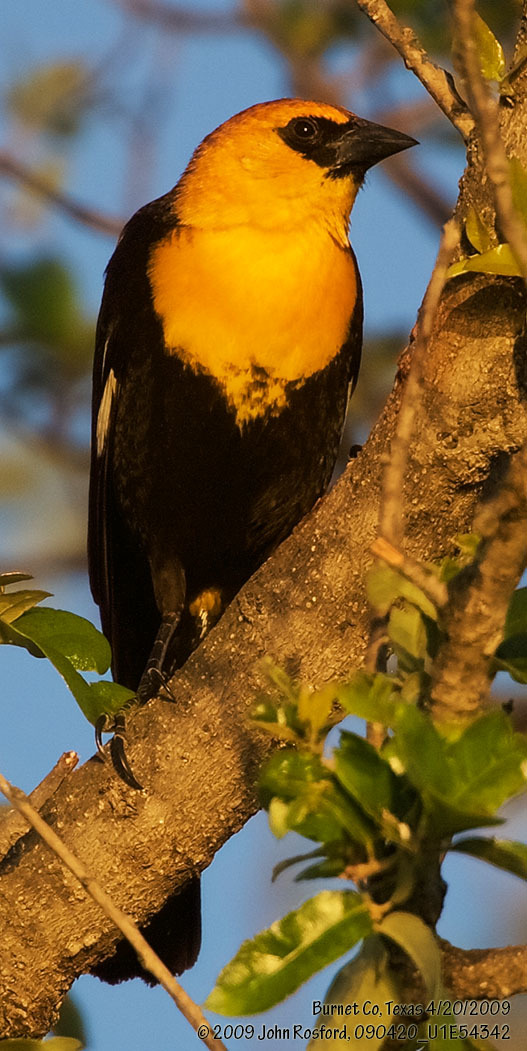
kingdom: Animalia
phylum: Chordata
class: Aves
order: Passeriformes
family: Icteridae
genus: Xanthocephalus
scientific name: Xanthocephalus xanthocephalus
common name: Yellow-headed blackbird
